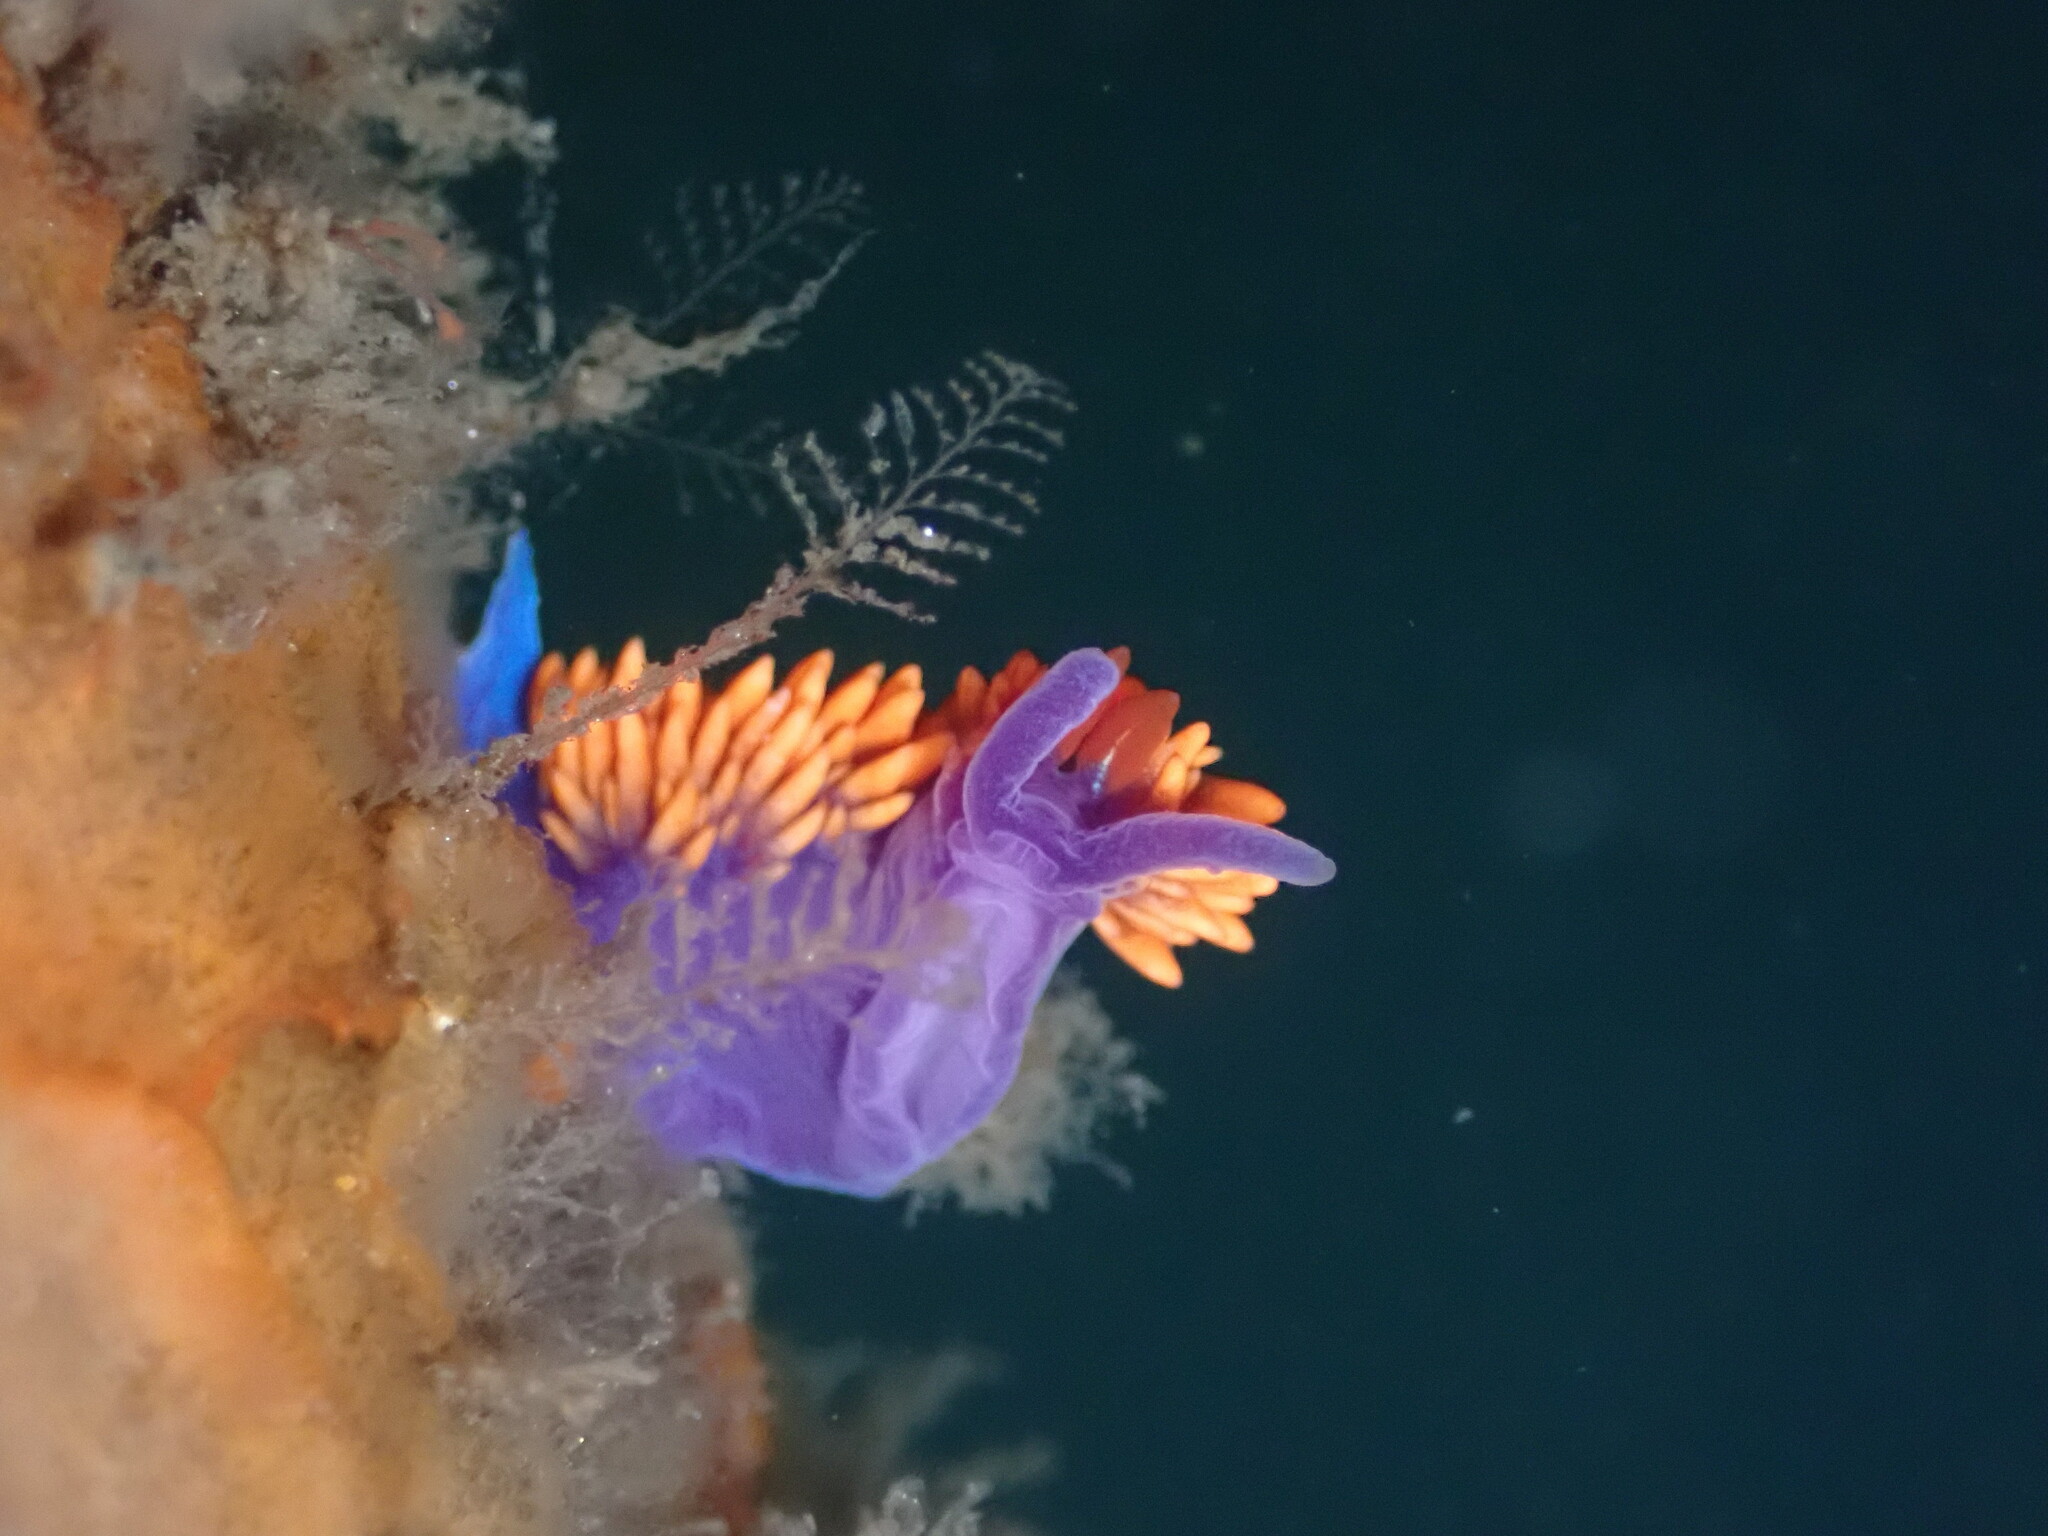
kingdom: Animalia
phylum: Mollusca
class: Gastropoda
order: Nudibranchia
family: Flabellinopsidae
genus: Flabellinopsis
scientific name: Flabellinopsis iodinea
